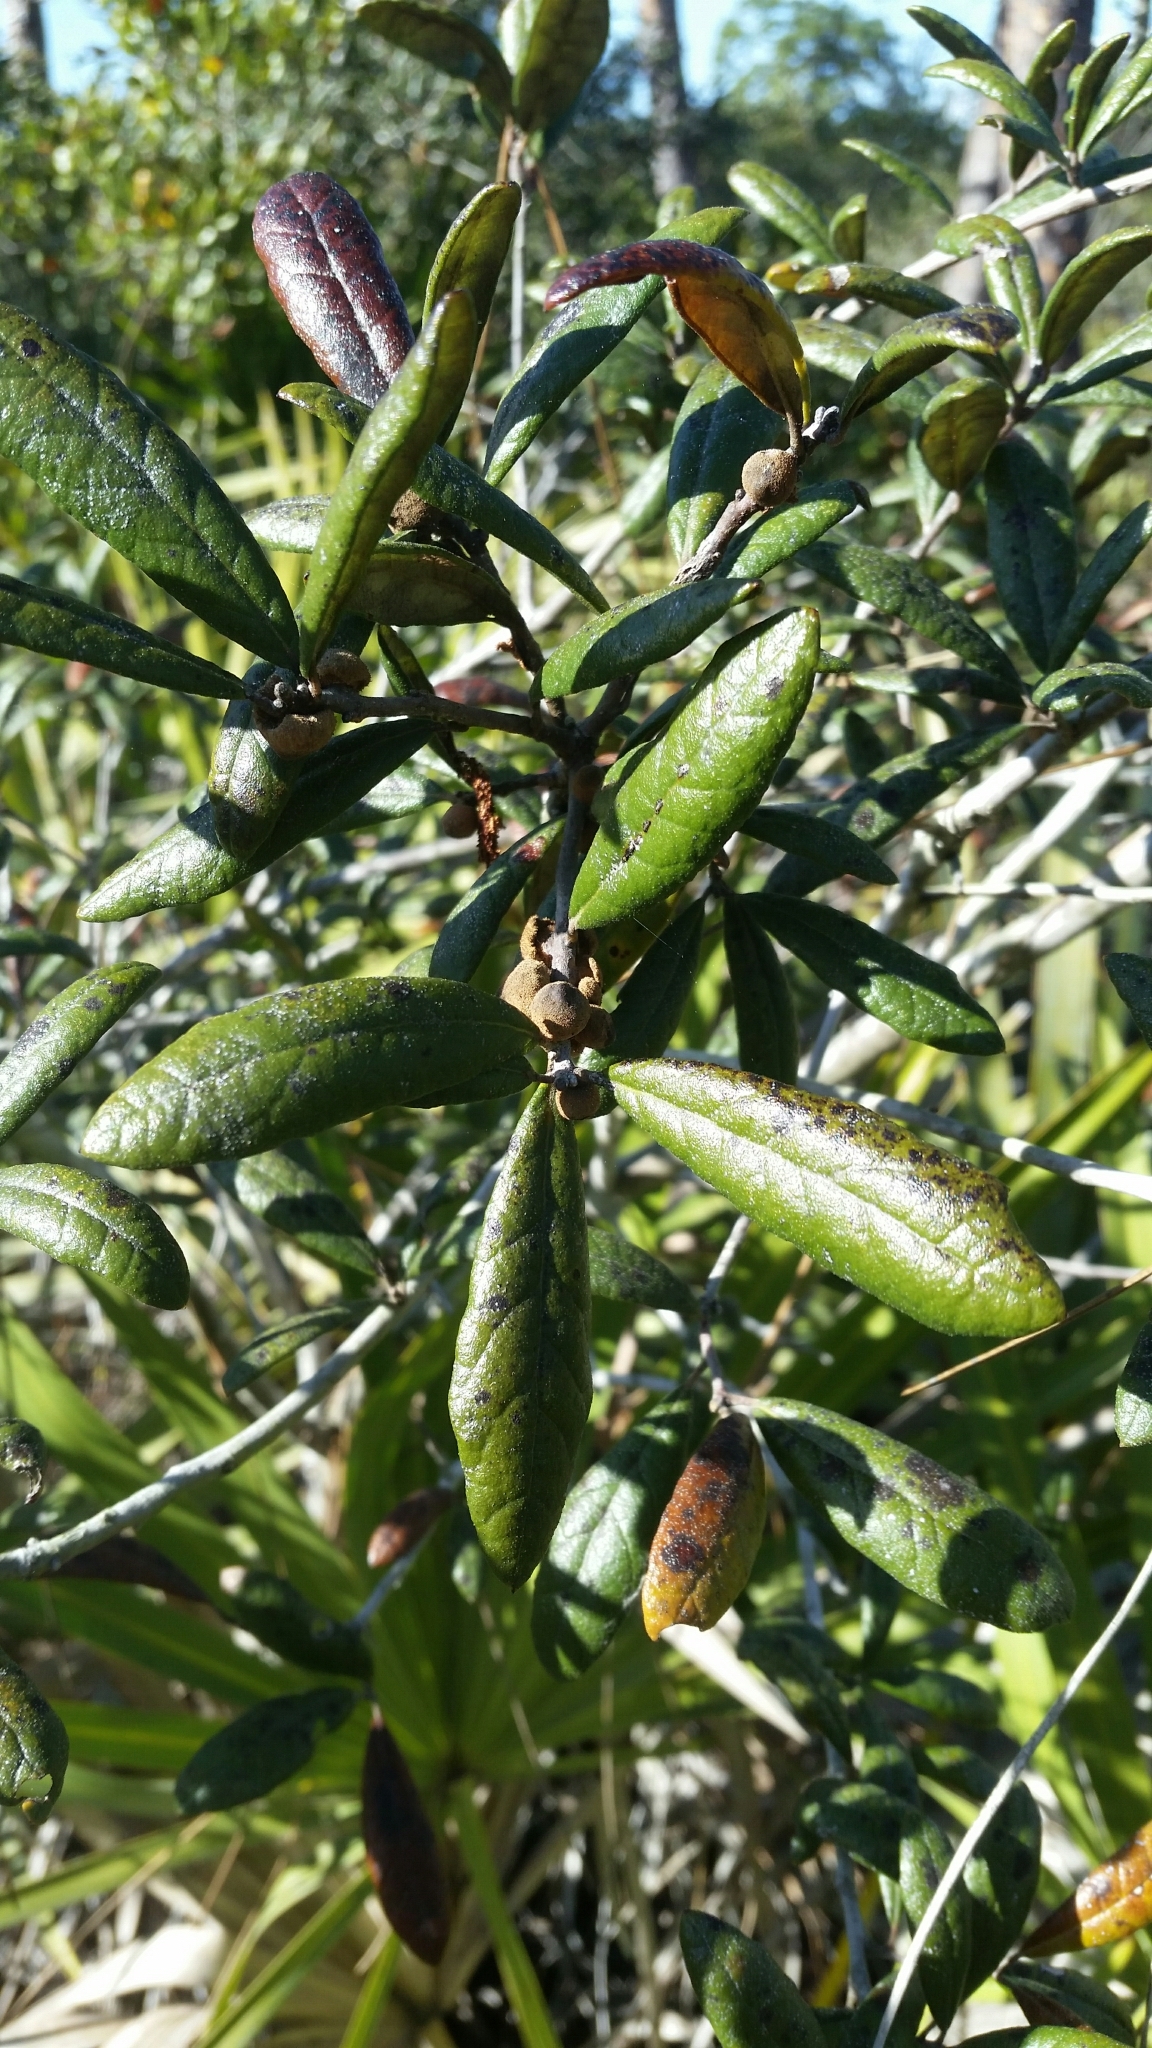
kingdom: Plantae
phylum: Tracheophyta
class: Magnoliopsida
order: Fagales
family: Fagaceae
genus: Quercus
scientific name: Quercus geminata
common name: Sand live oak
